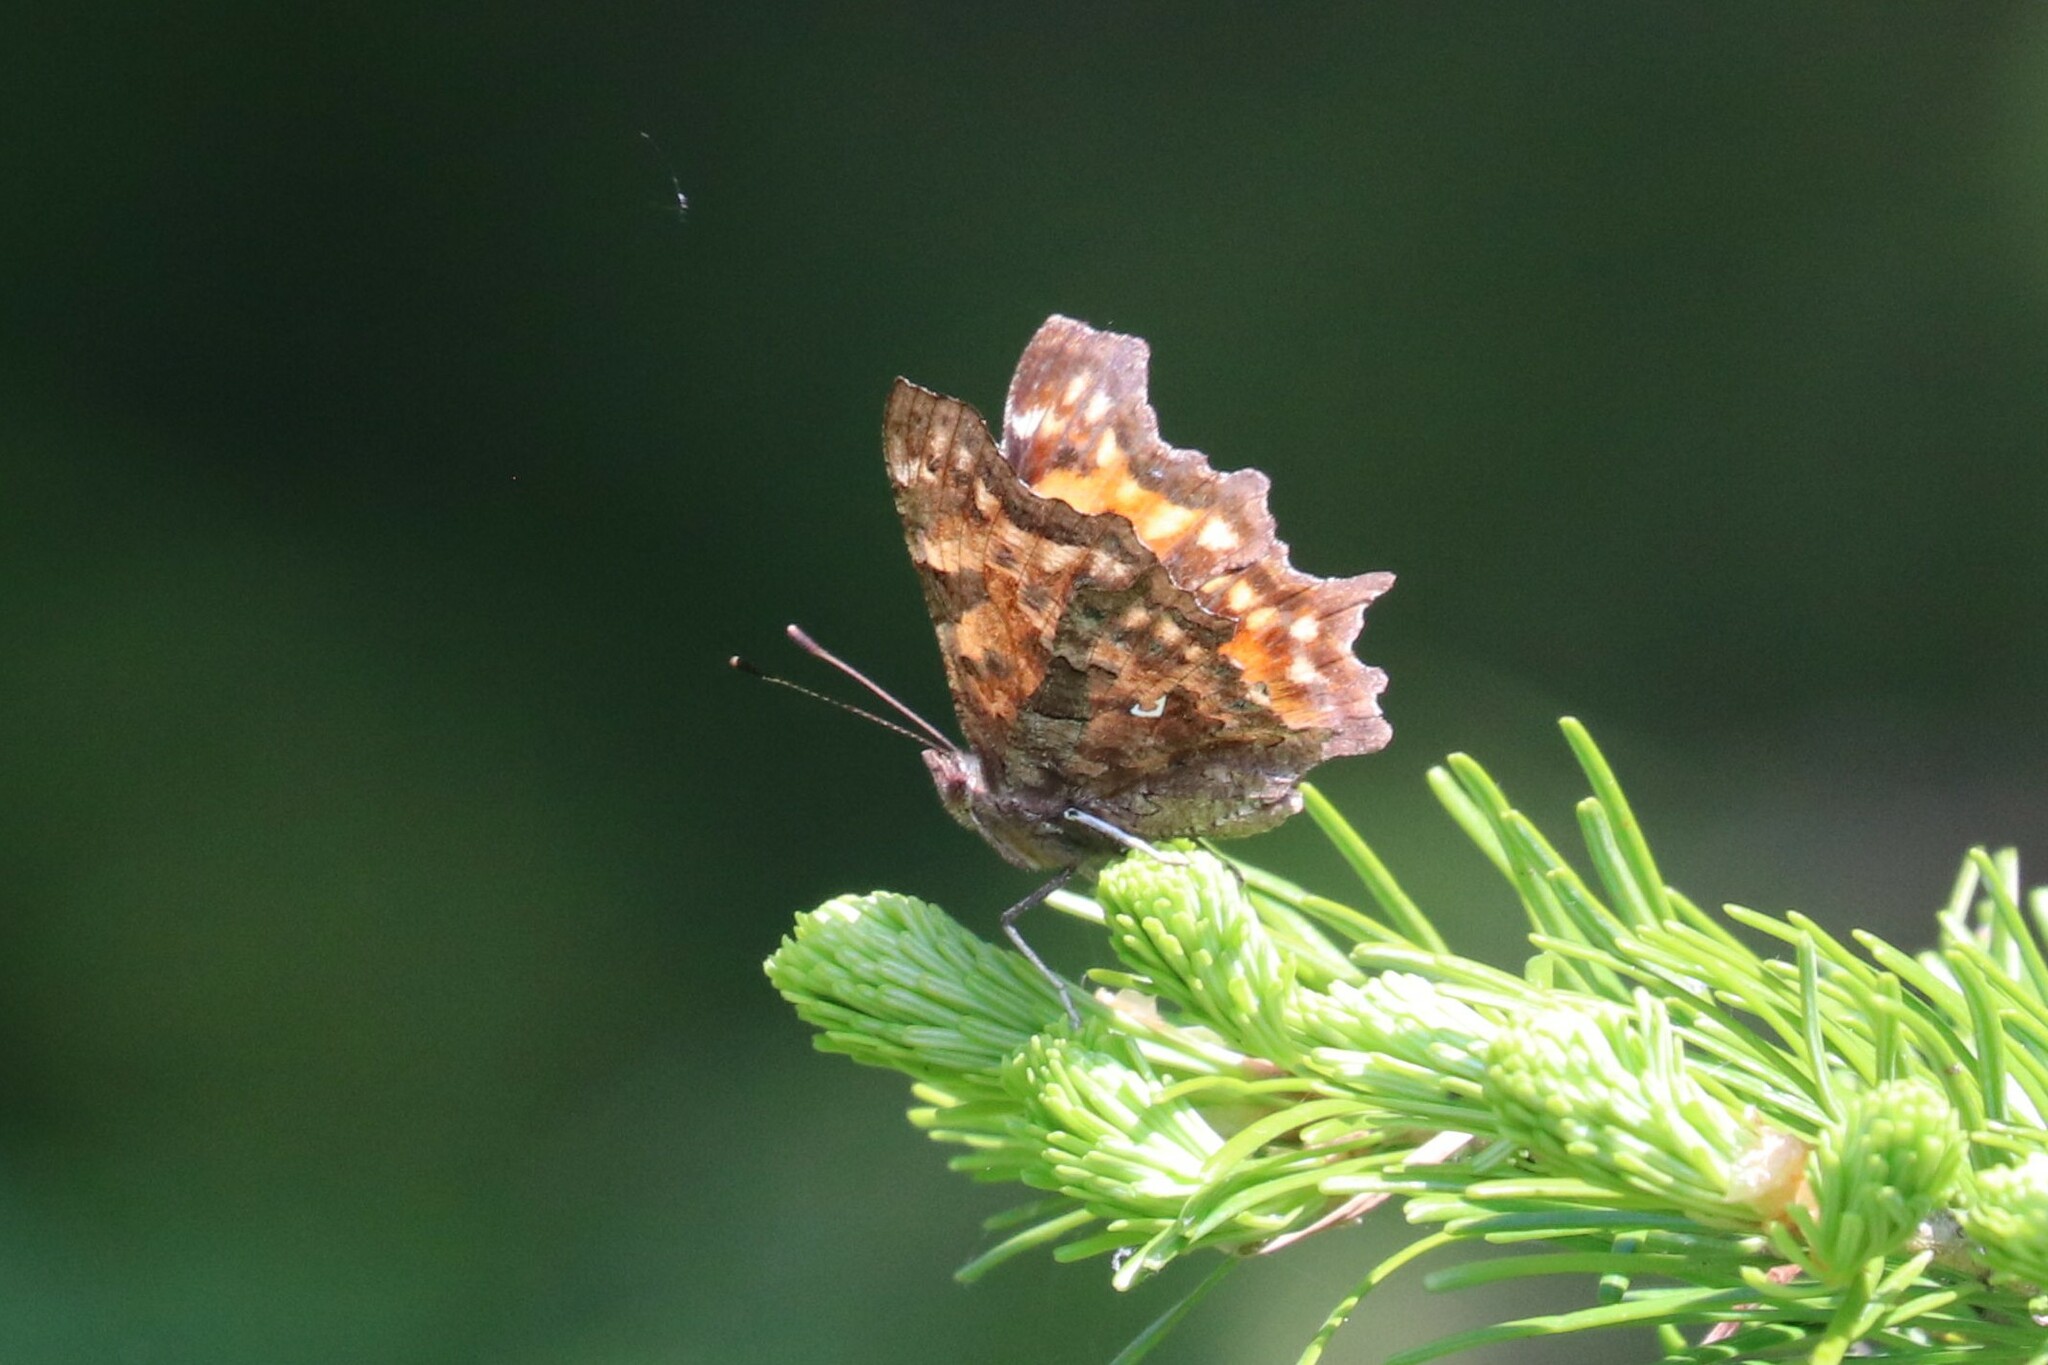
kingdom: Animalia
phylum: Arthropoda
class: Insecta
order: Lepidoptera
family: Nymphalidae
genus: Polygonia
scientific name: Polygonia c-album
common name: Comma
